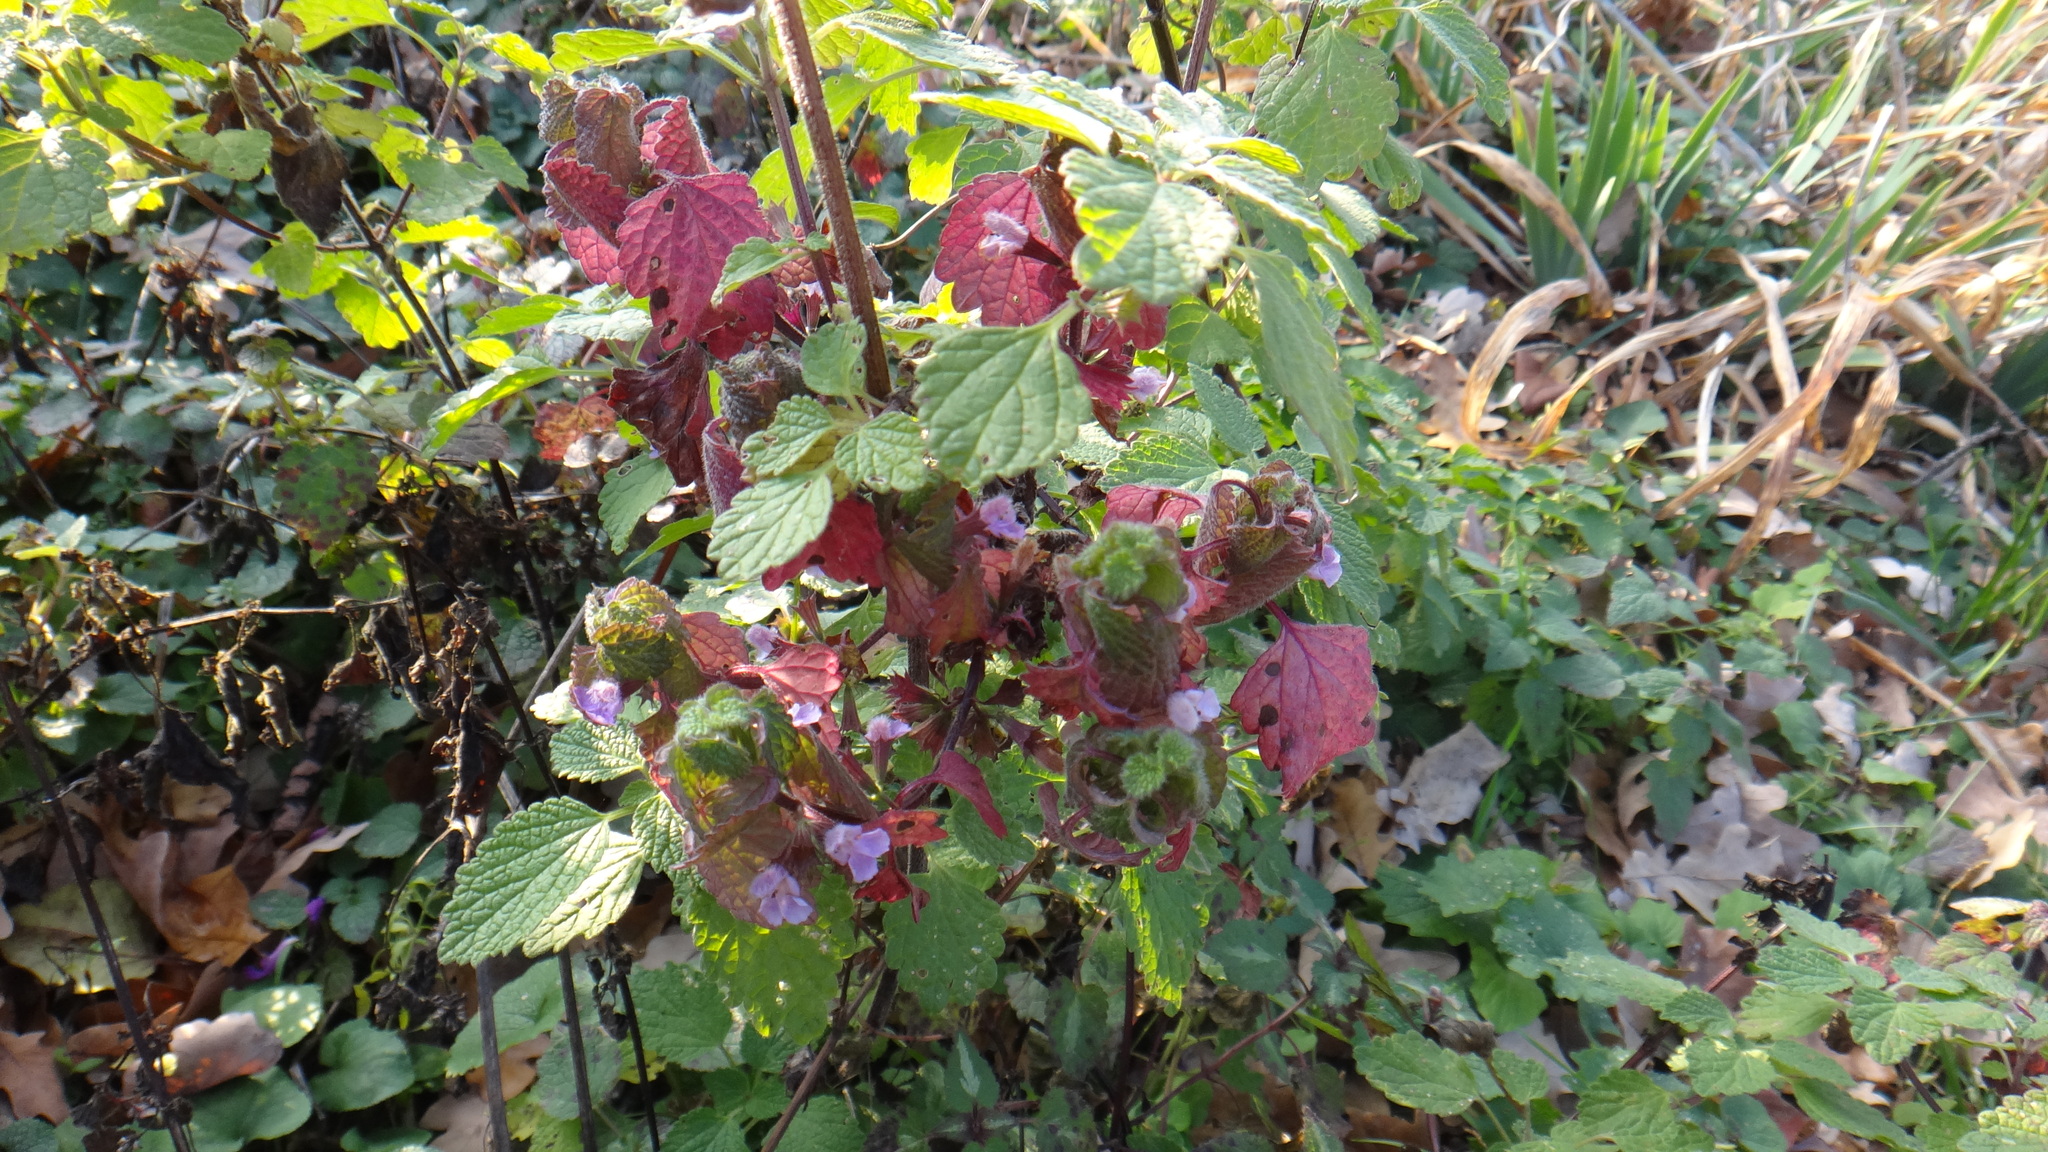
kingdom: Plantae
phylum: Tracheophyta
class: Magnoliopsida
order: Lamiales
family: Lamiaceae
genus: Ballota
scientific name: Ballota nigra
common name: Black horehound
